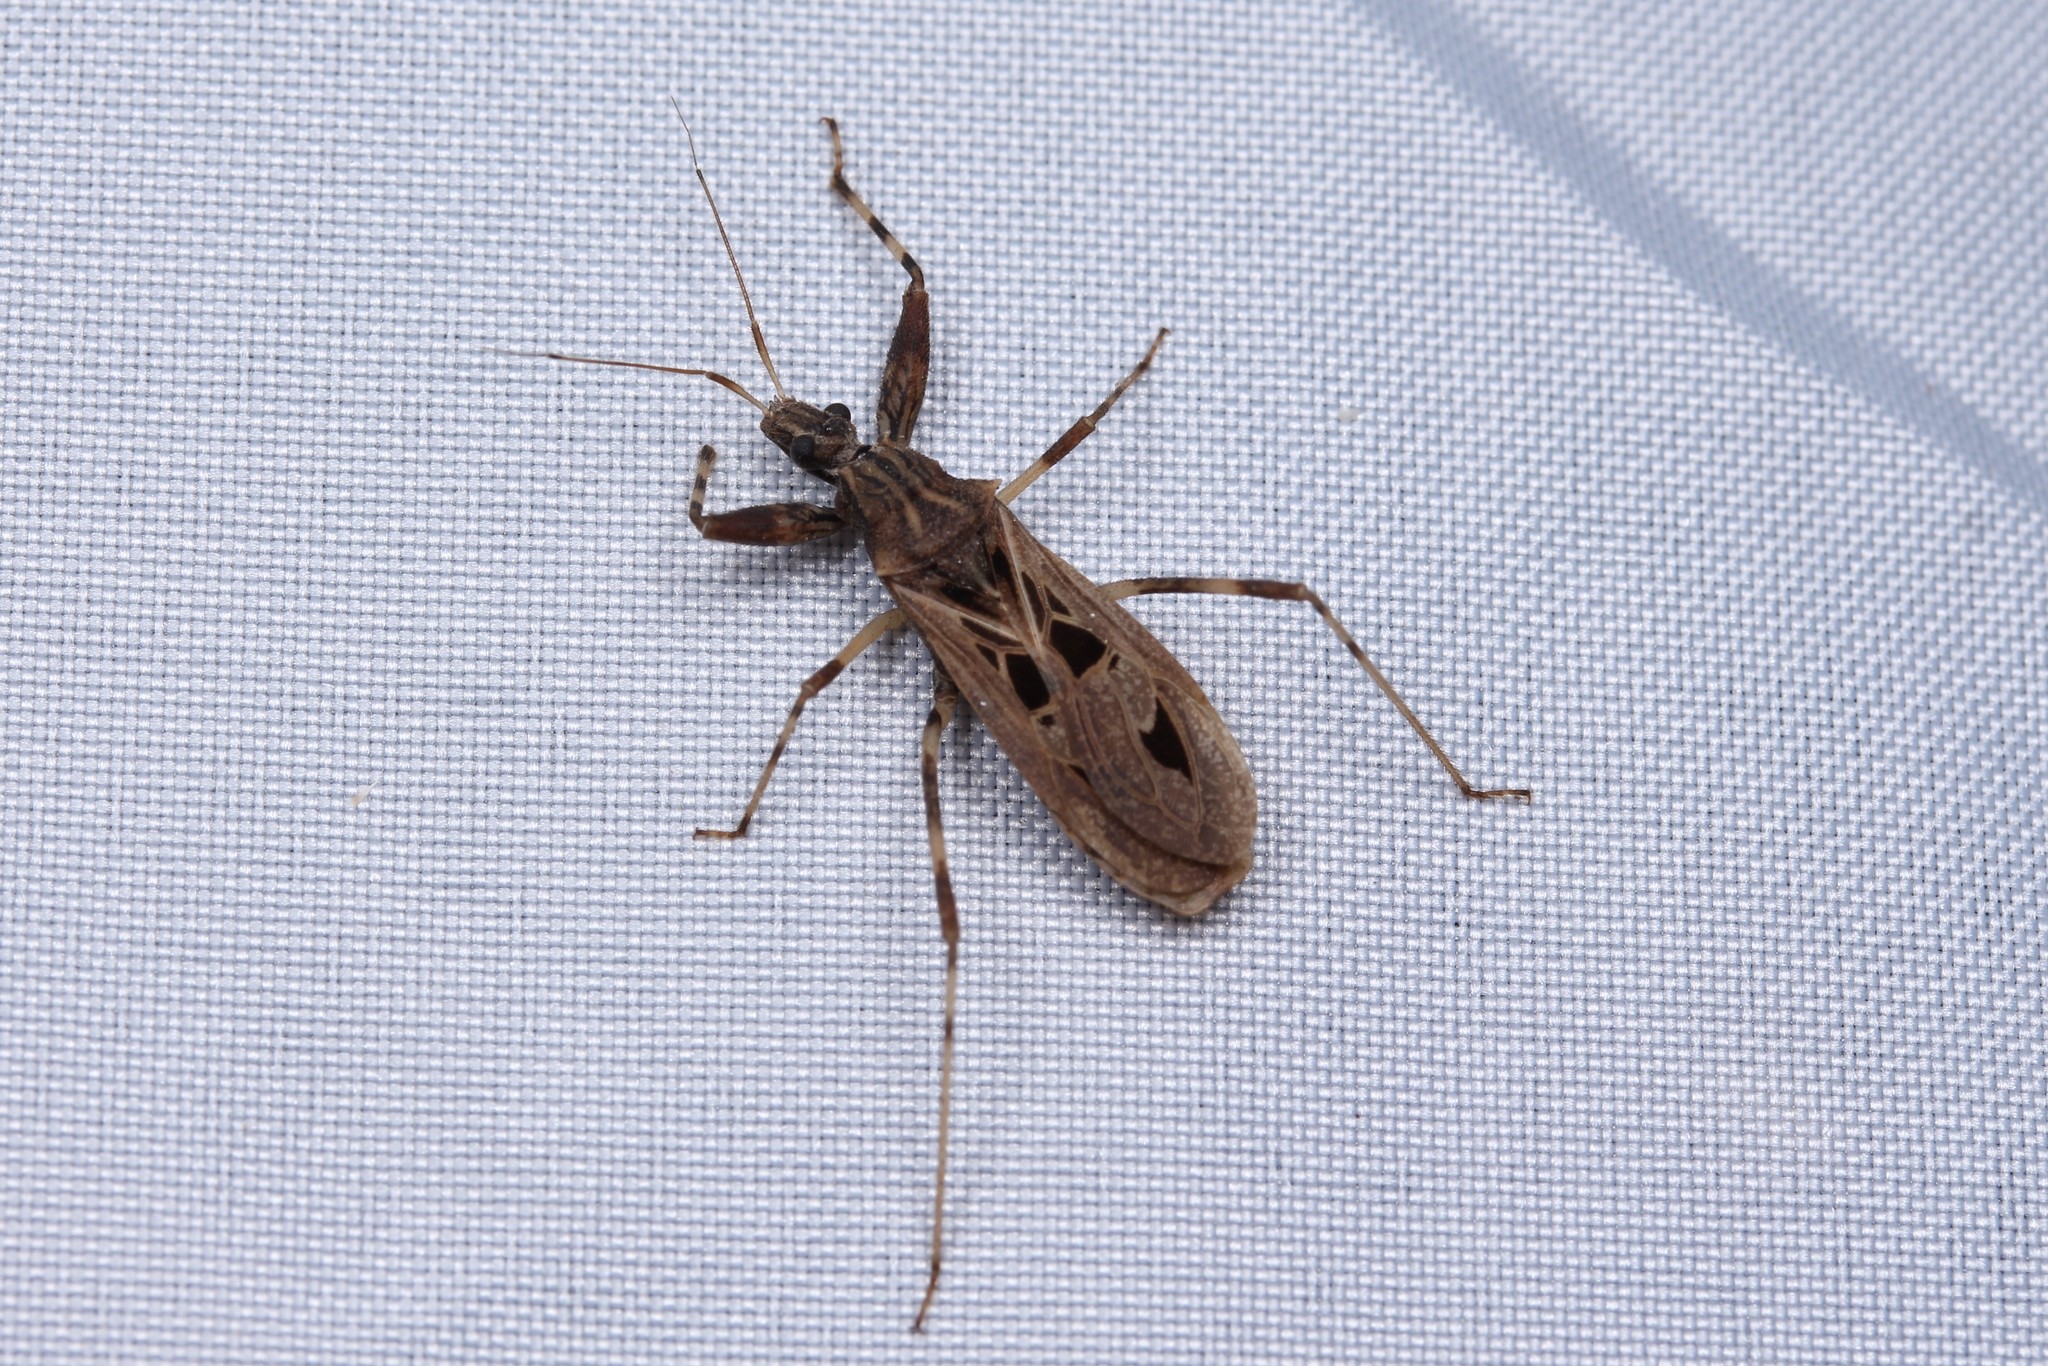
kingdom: Animalia
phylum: Arthropoda
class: Insecta
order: Hemiptera
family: Reduviidae
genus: Oncocephalus
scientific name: Oncocephalus pudicus
